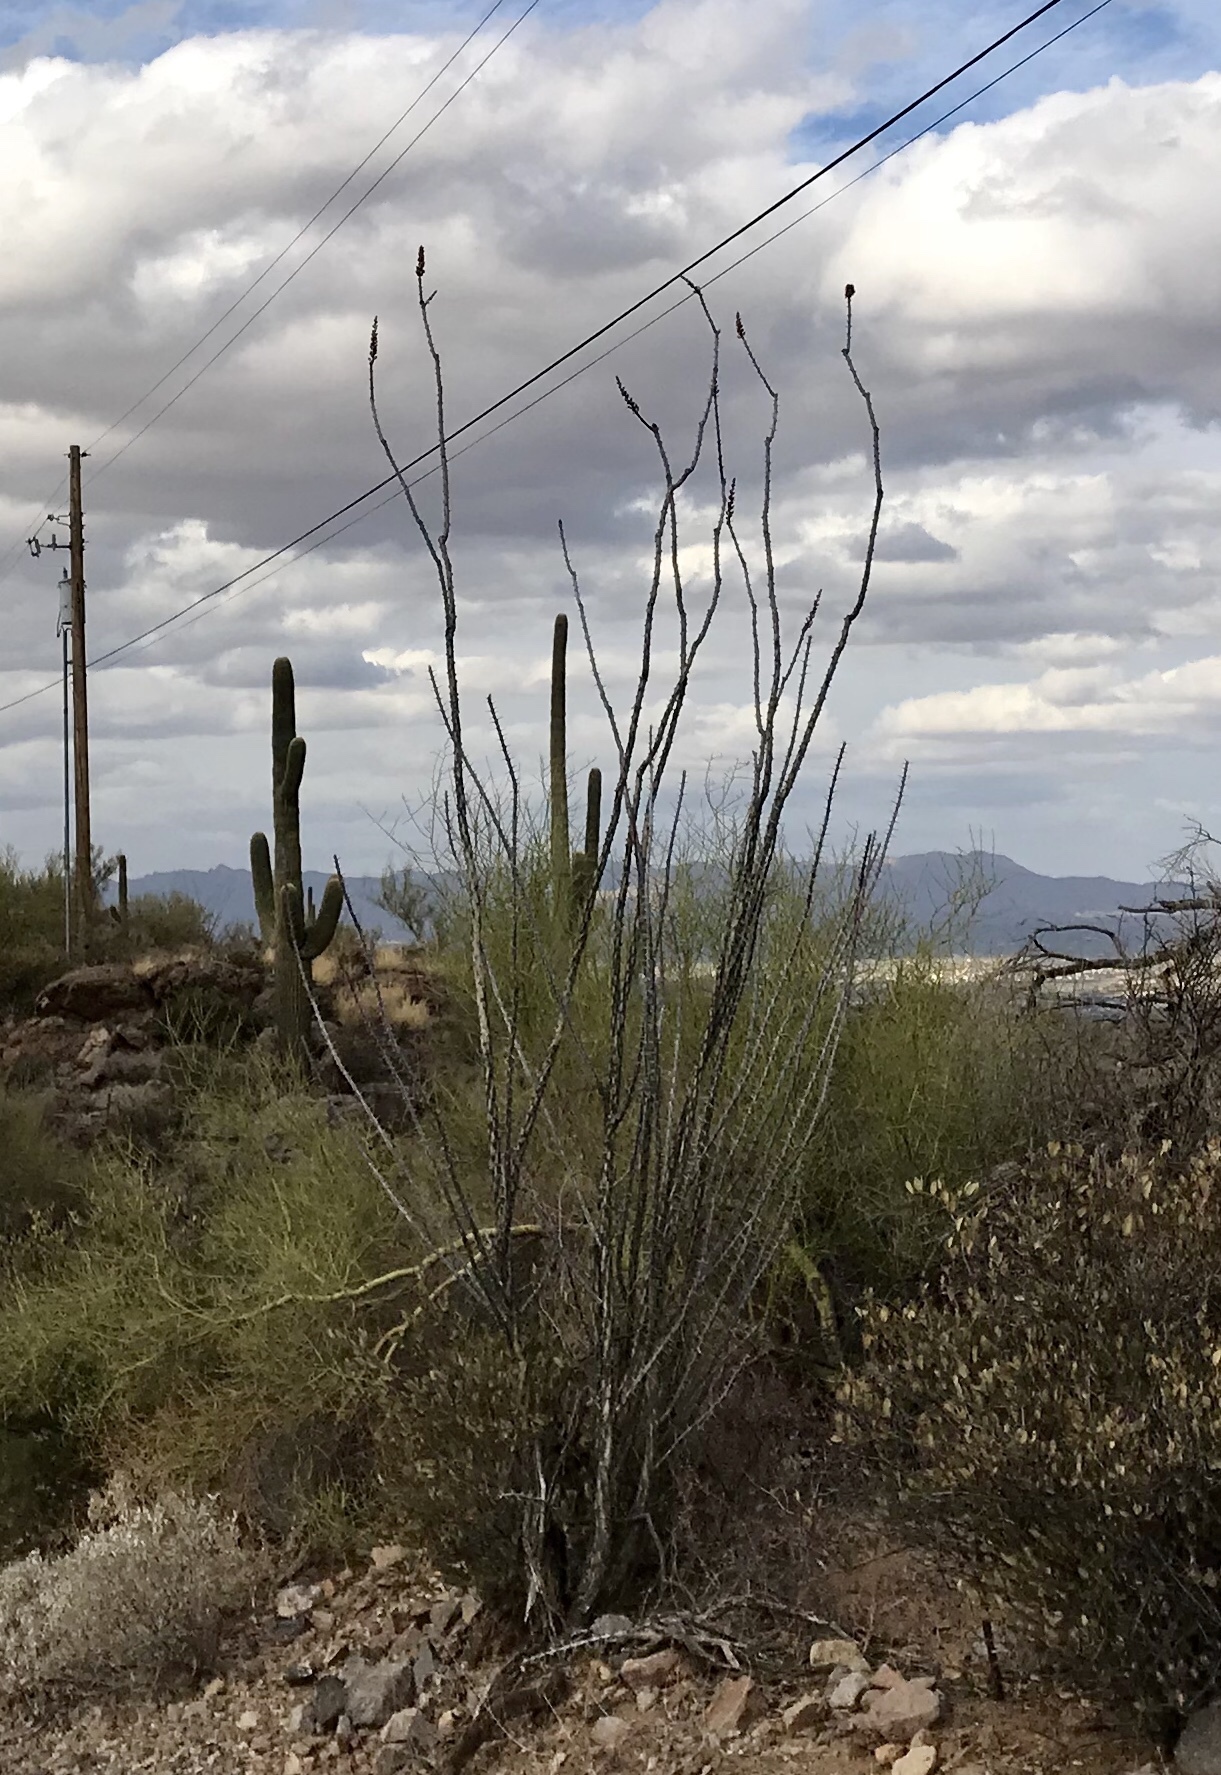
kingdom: Plantae
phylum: Tracheophyta
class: Magnoliopsida
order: Ericales
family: Fouquieriaceae
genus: Fouquieria
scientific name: Fouquieria splendens
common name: Vine-cactus
